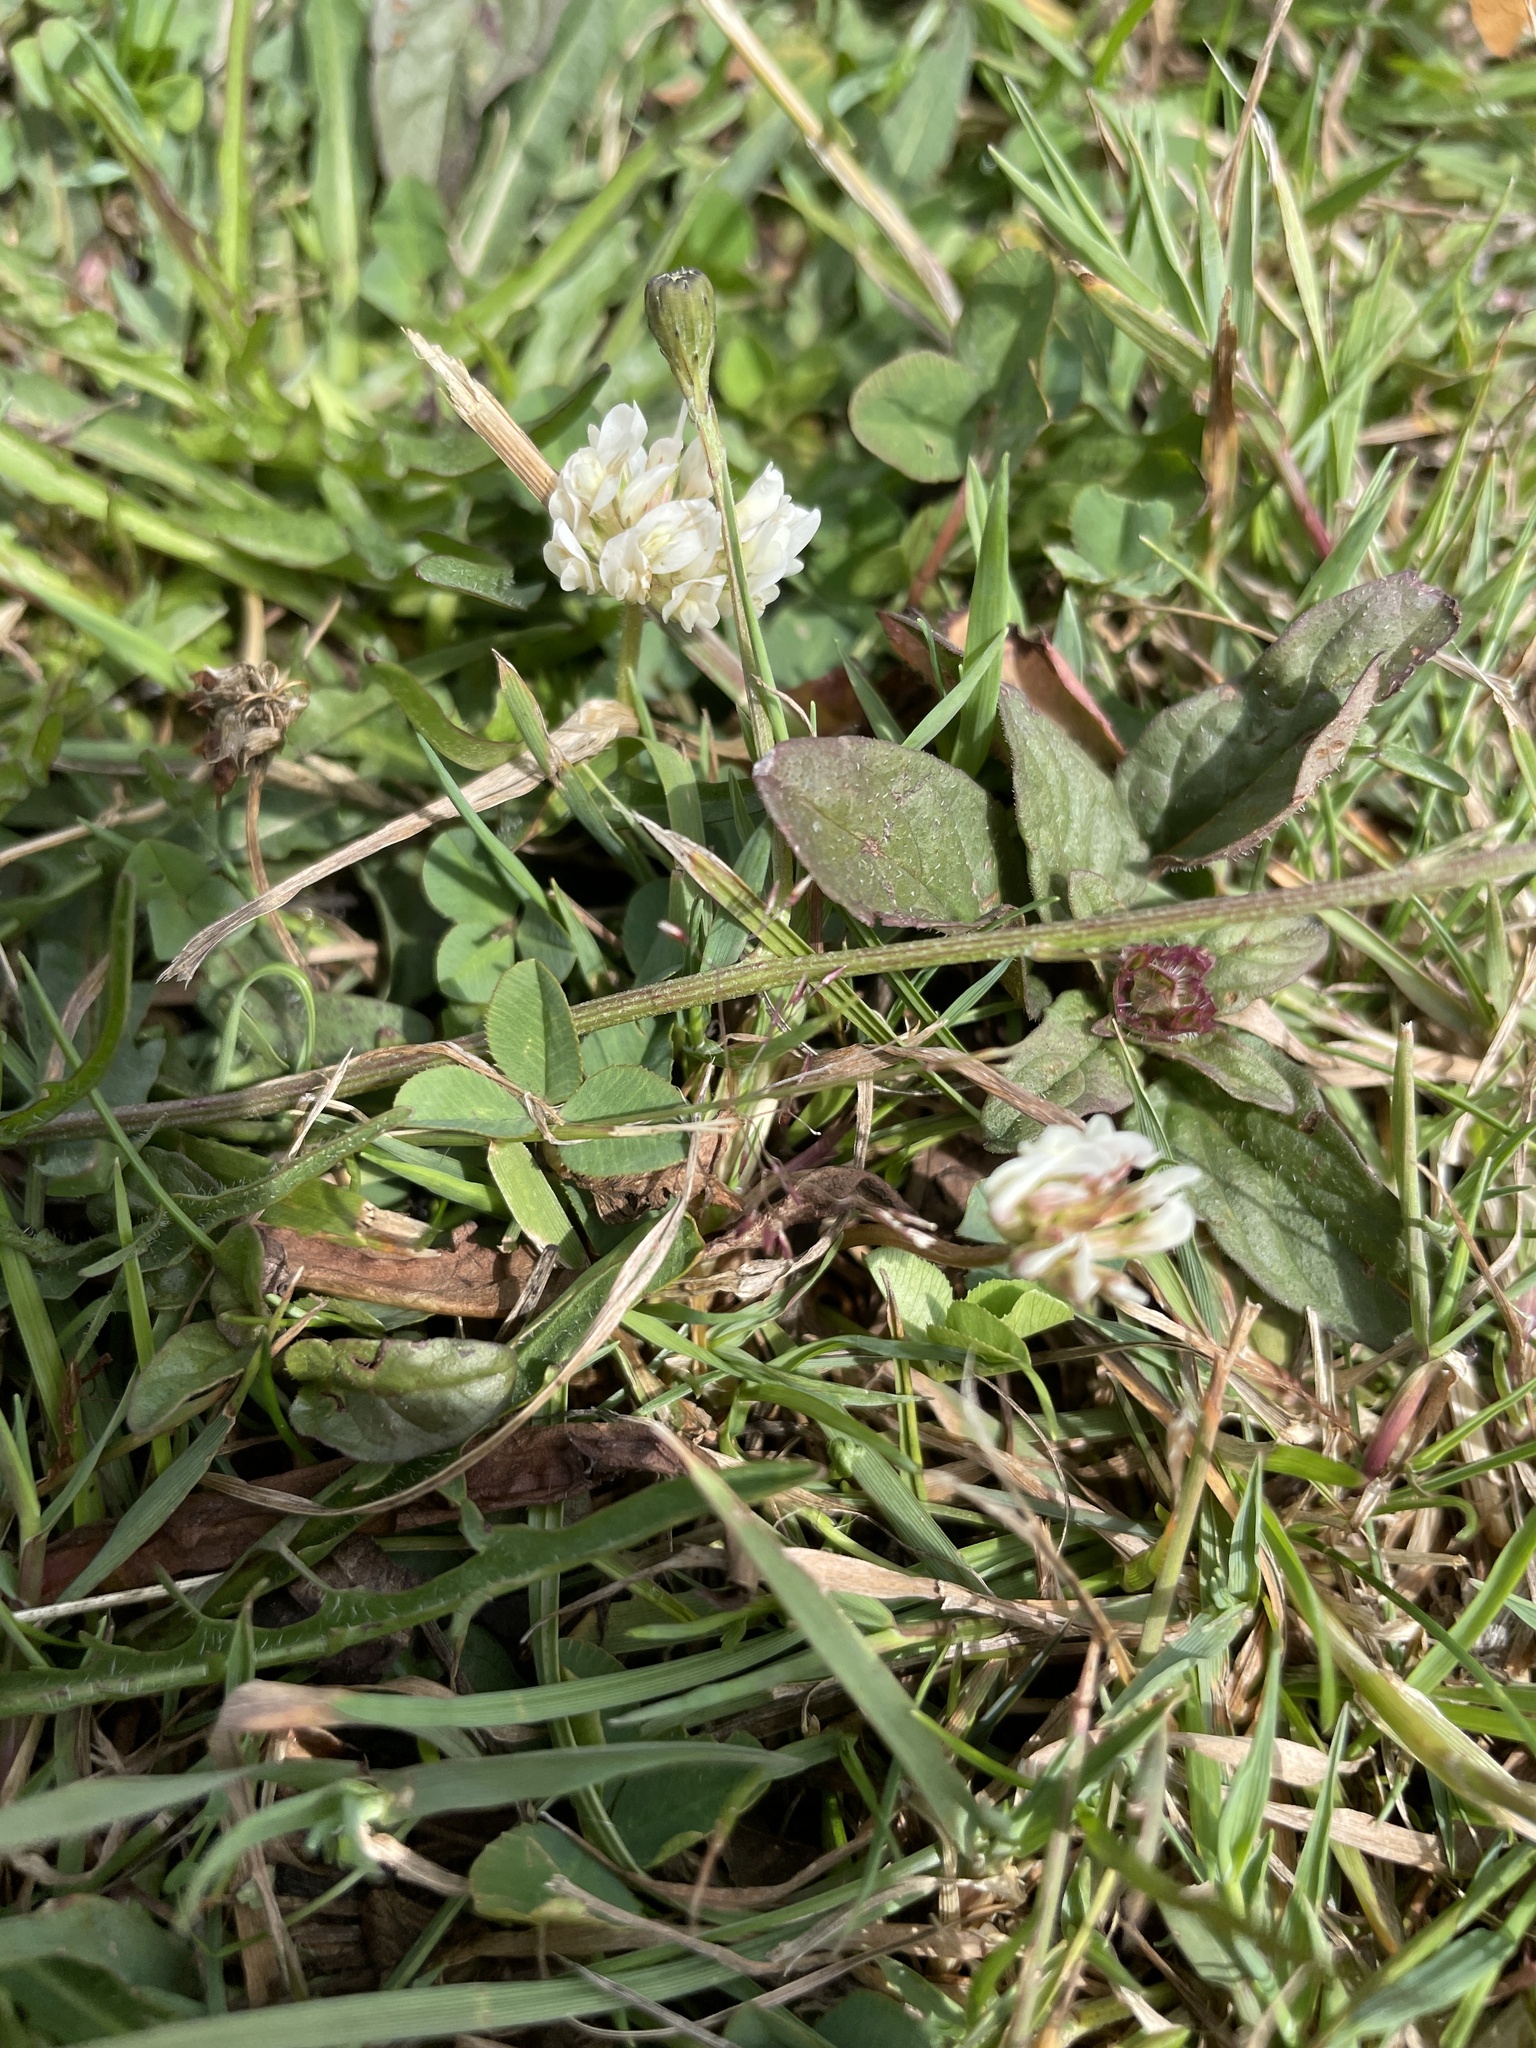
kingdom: Plantae
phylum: Tracheophyta
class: Magnoliopsida
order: Fabales
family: Fabaceae
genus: Trifolium
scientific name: Trifolium repens
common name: White clover
